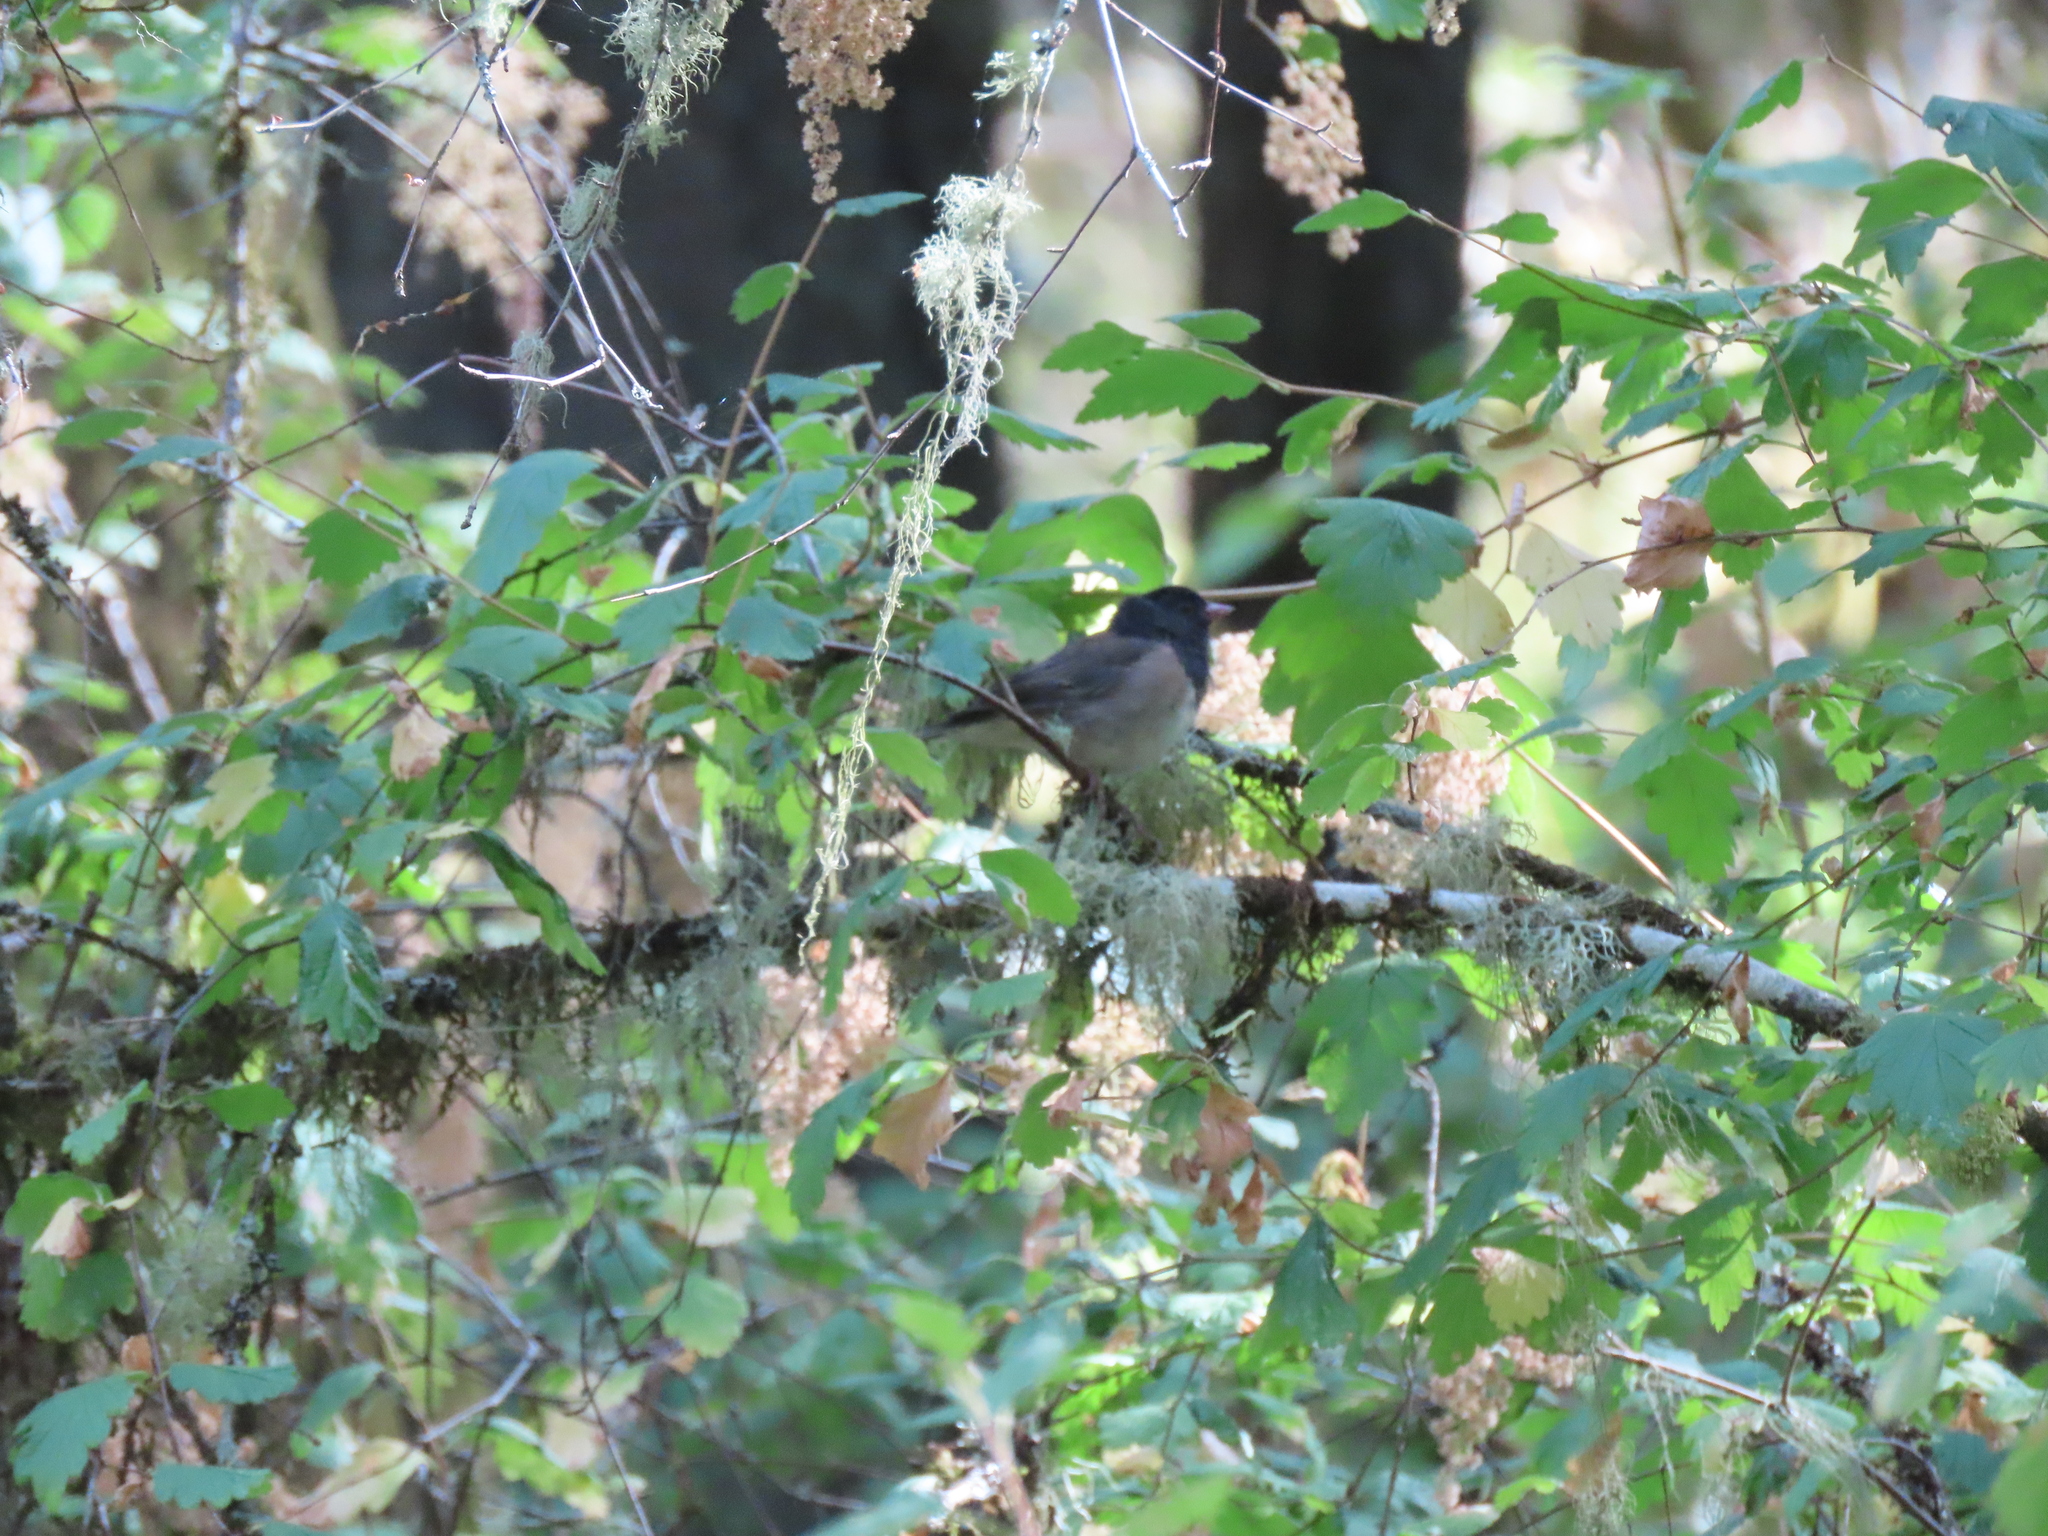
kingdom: Animalia
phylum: Chordata
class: Aves
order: Passeriformes
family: Passerellidae
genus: Junco
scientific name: Junco hyemalis
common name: Dark-eyed junco
